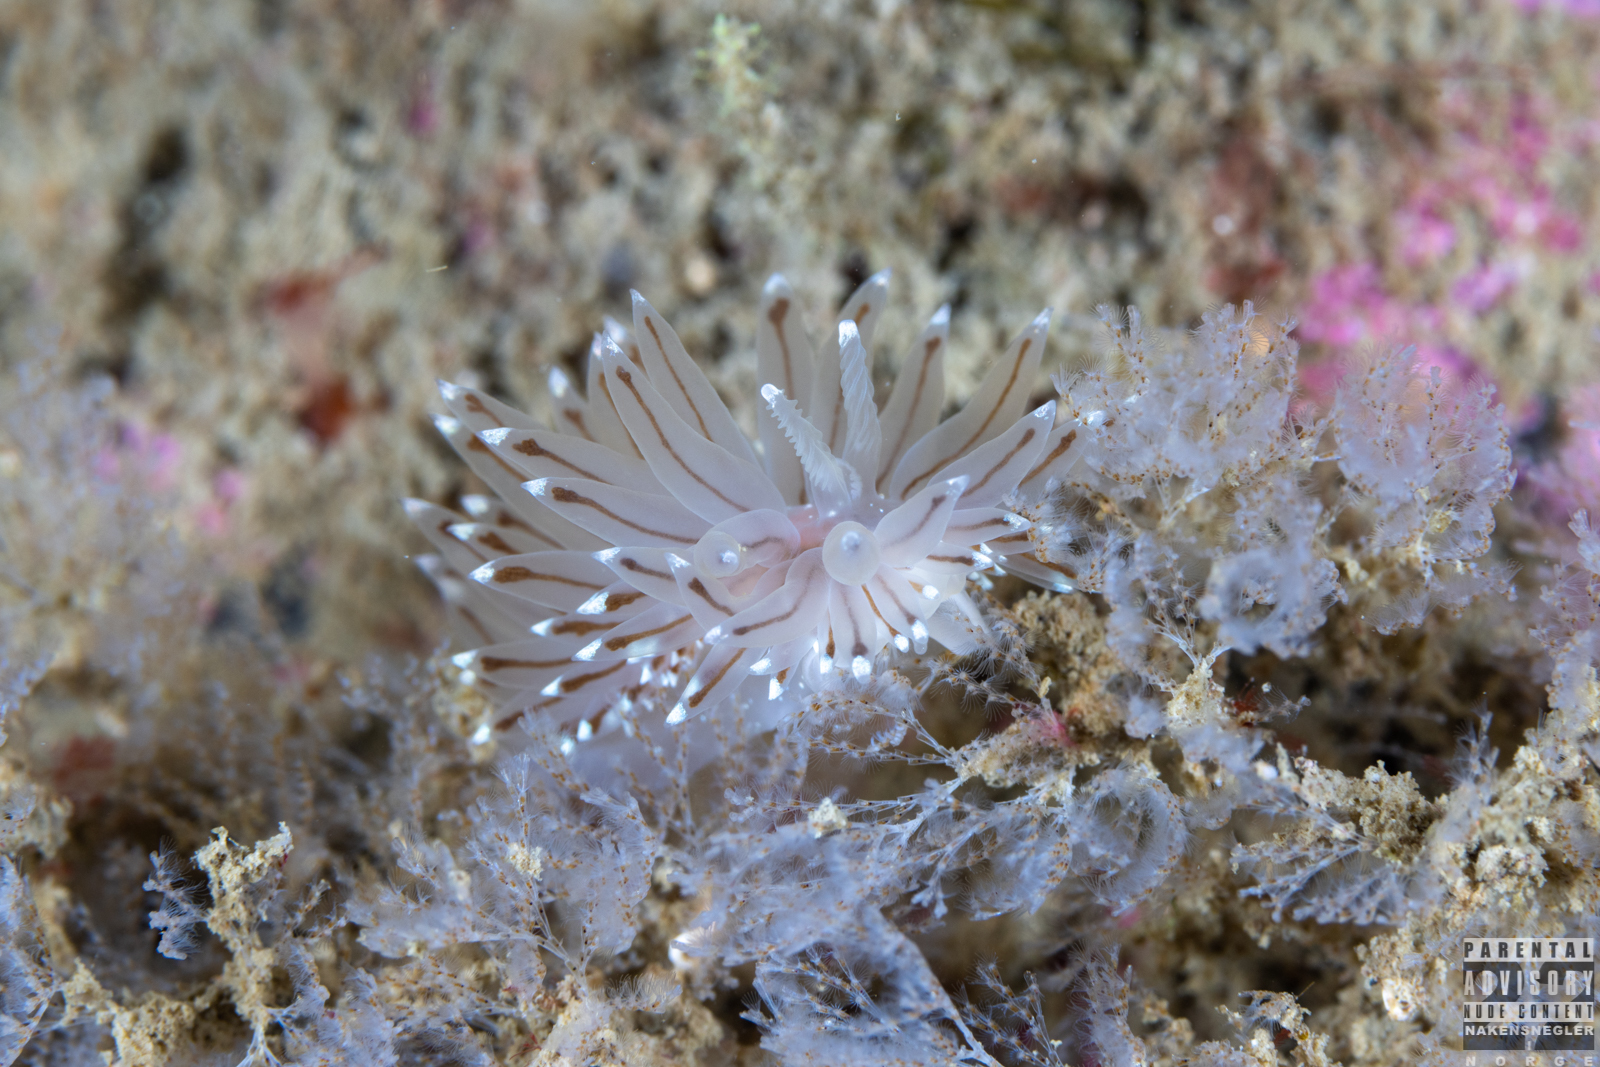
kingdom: Animalia
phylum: Mollusca
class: Gastropoda
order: Nudibranchia
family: Janolidae
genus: Antiopella
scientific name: Antiopella cristata
